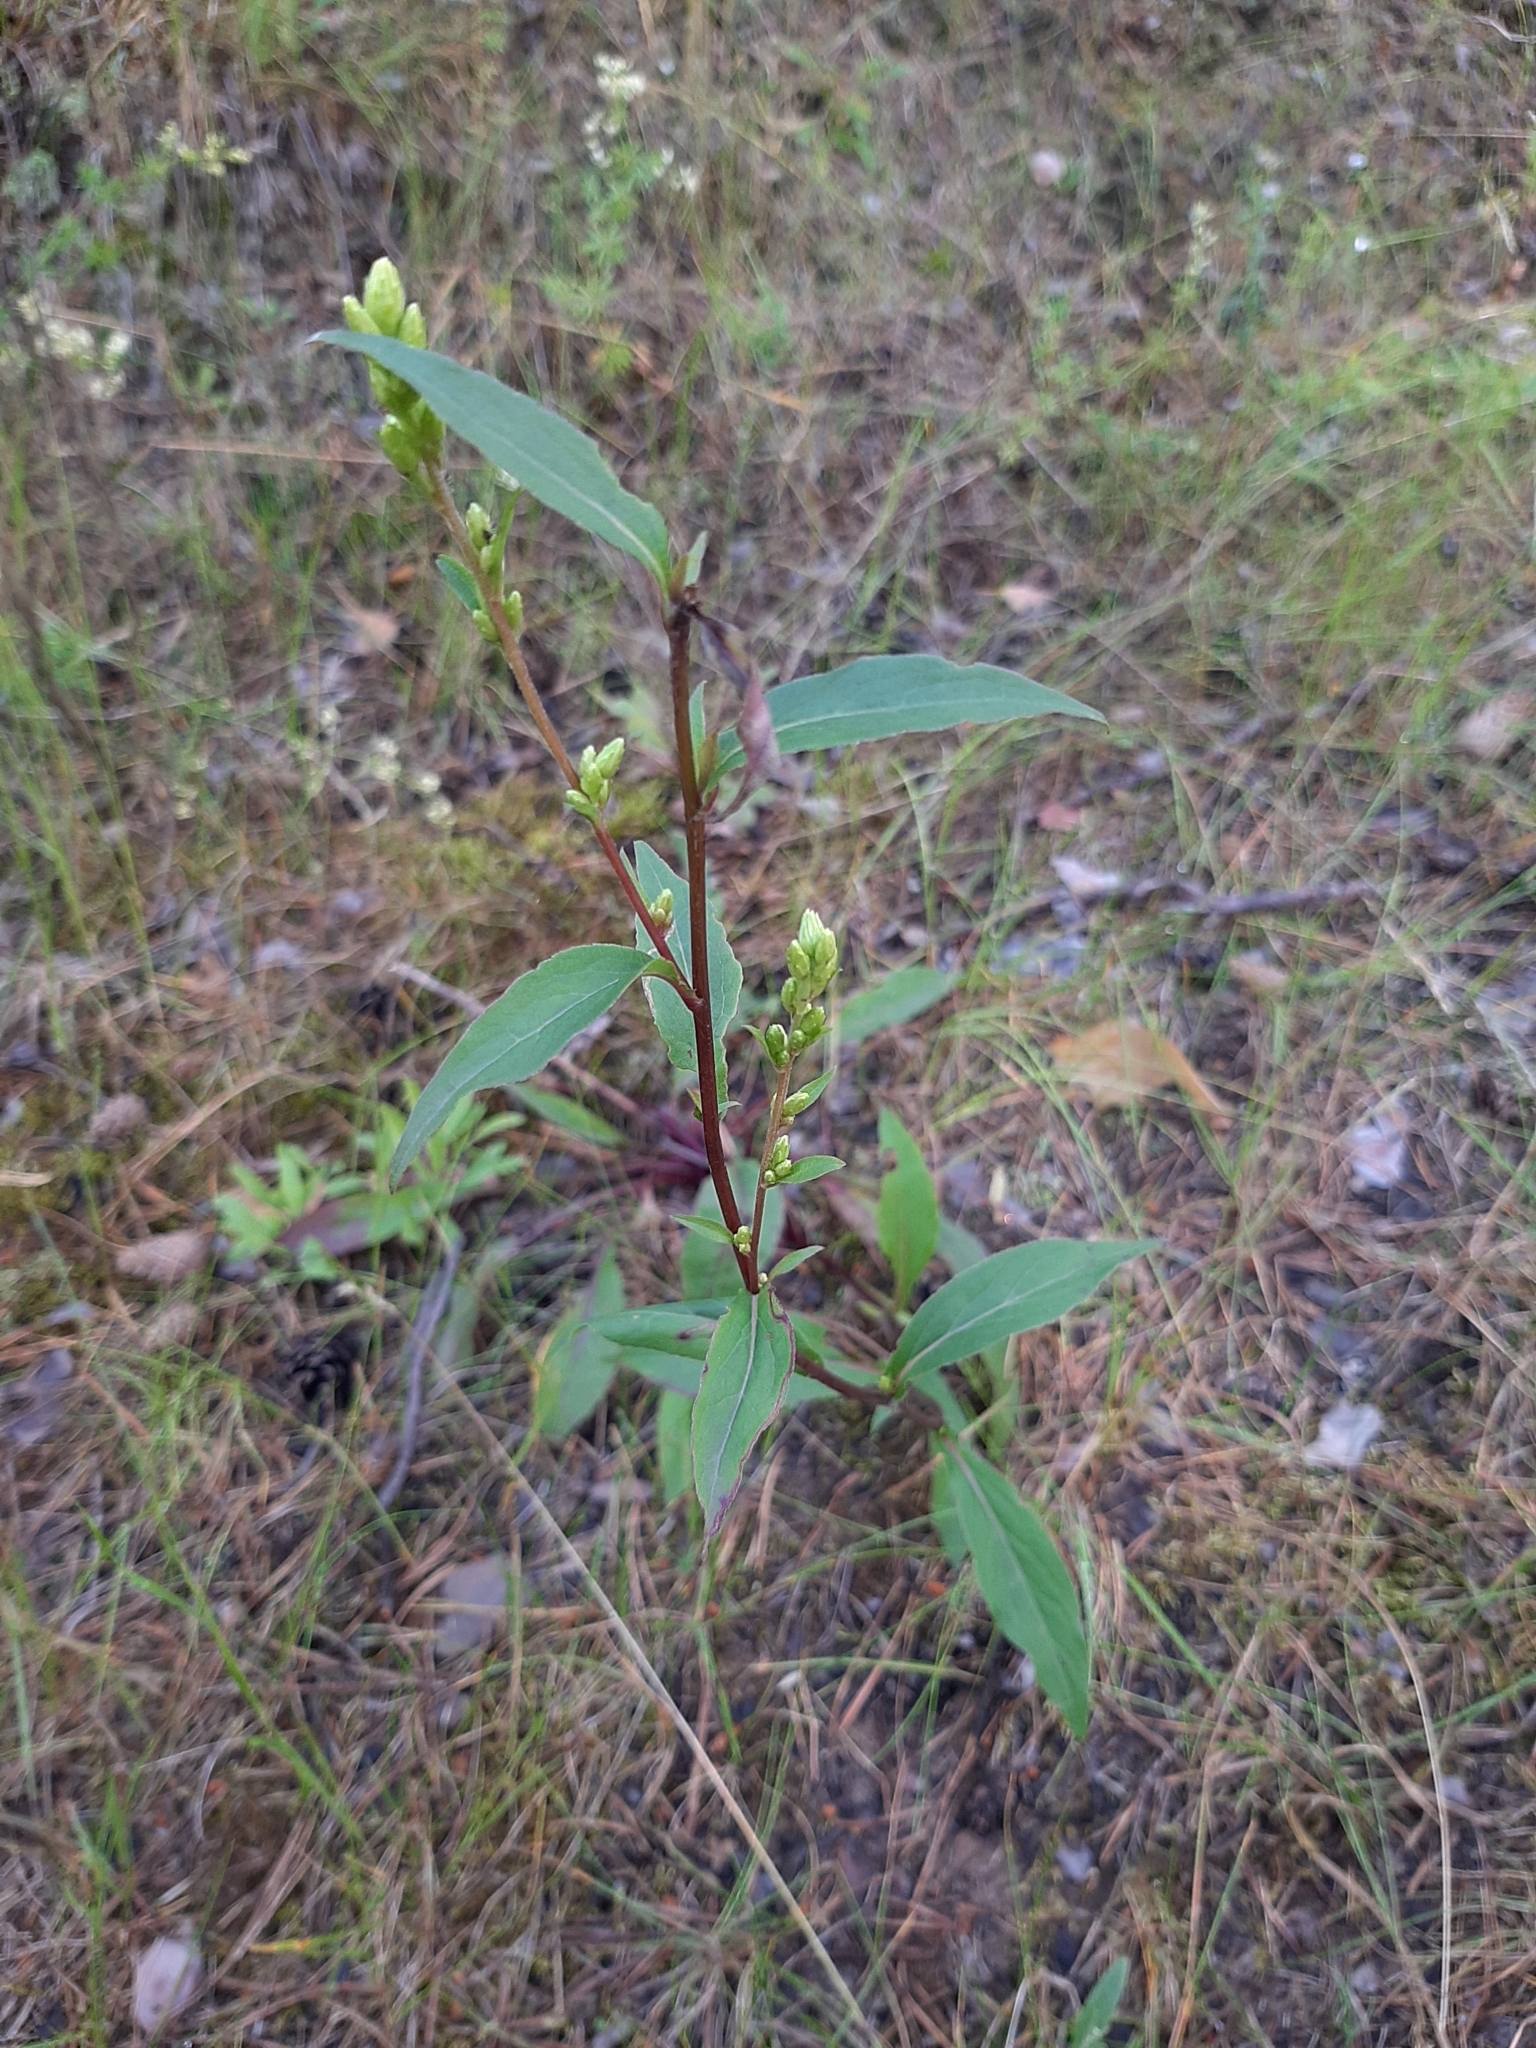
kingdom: Plantae
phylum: Tracheophyta
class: Magnoliopsida
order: Asterales
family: Asteraceae
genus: Solidago
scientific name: Solidago virgaurea
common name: Goldenrod
